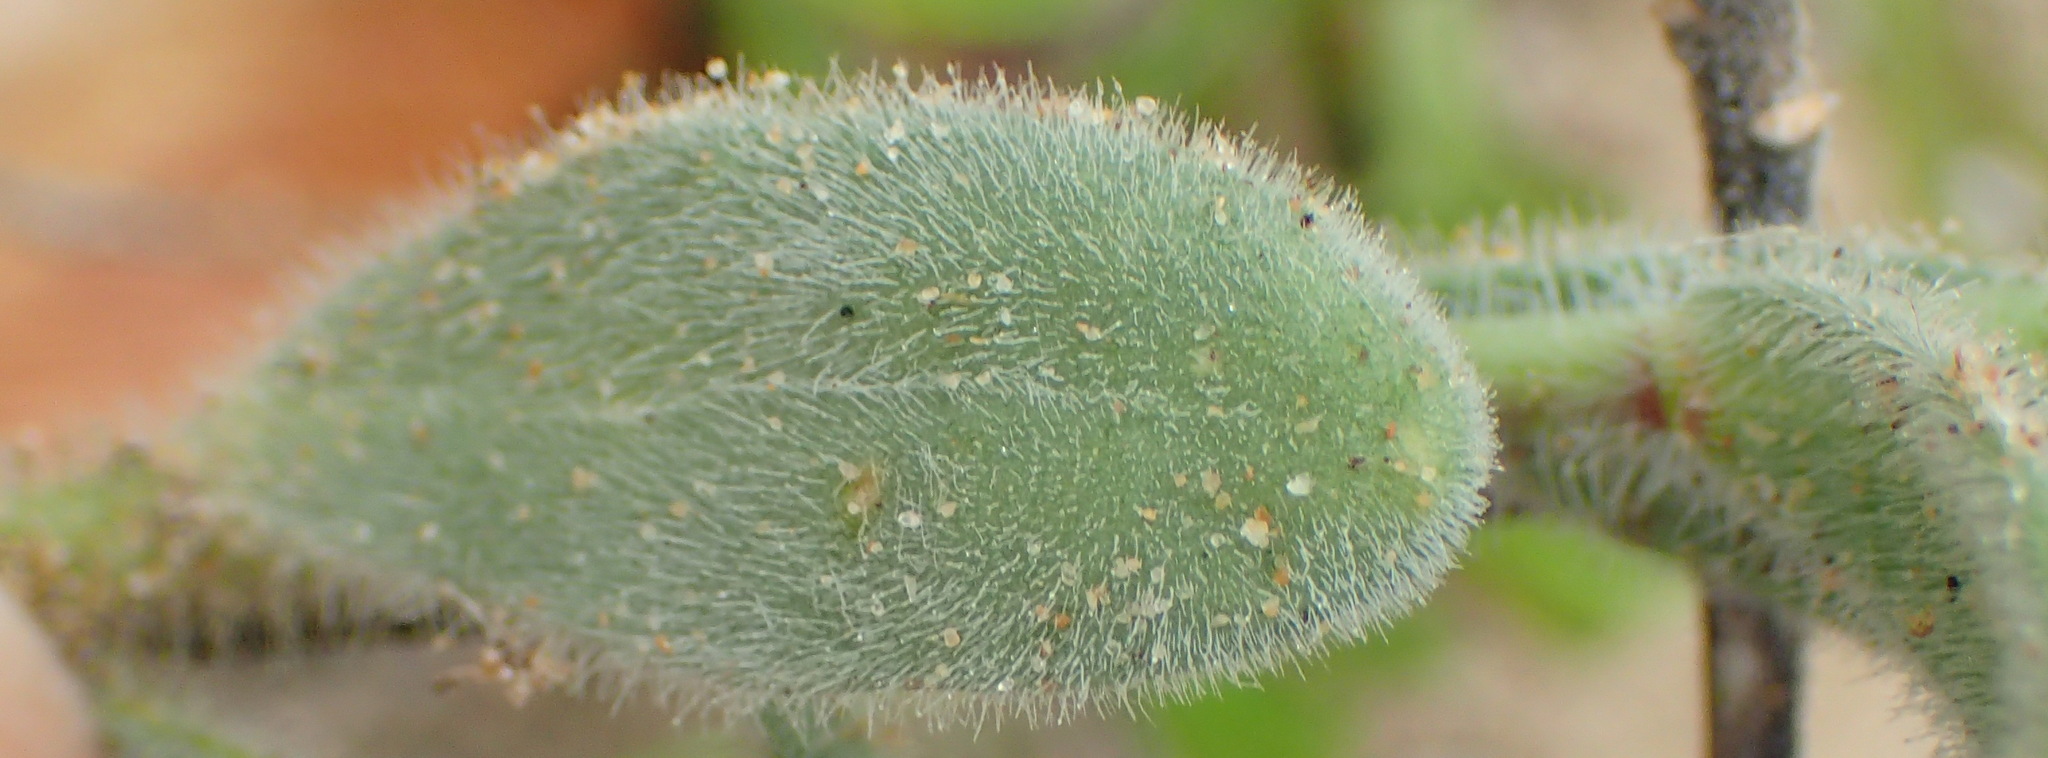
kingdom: Plantae
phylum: Tracheophyta
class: Magnoliopsida
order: Brassicales
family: Brassicaceae
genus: Heliophila
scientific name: Heliophila linearis
